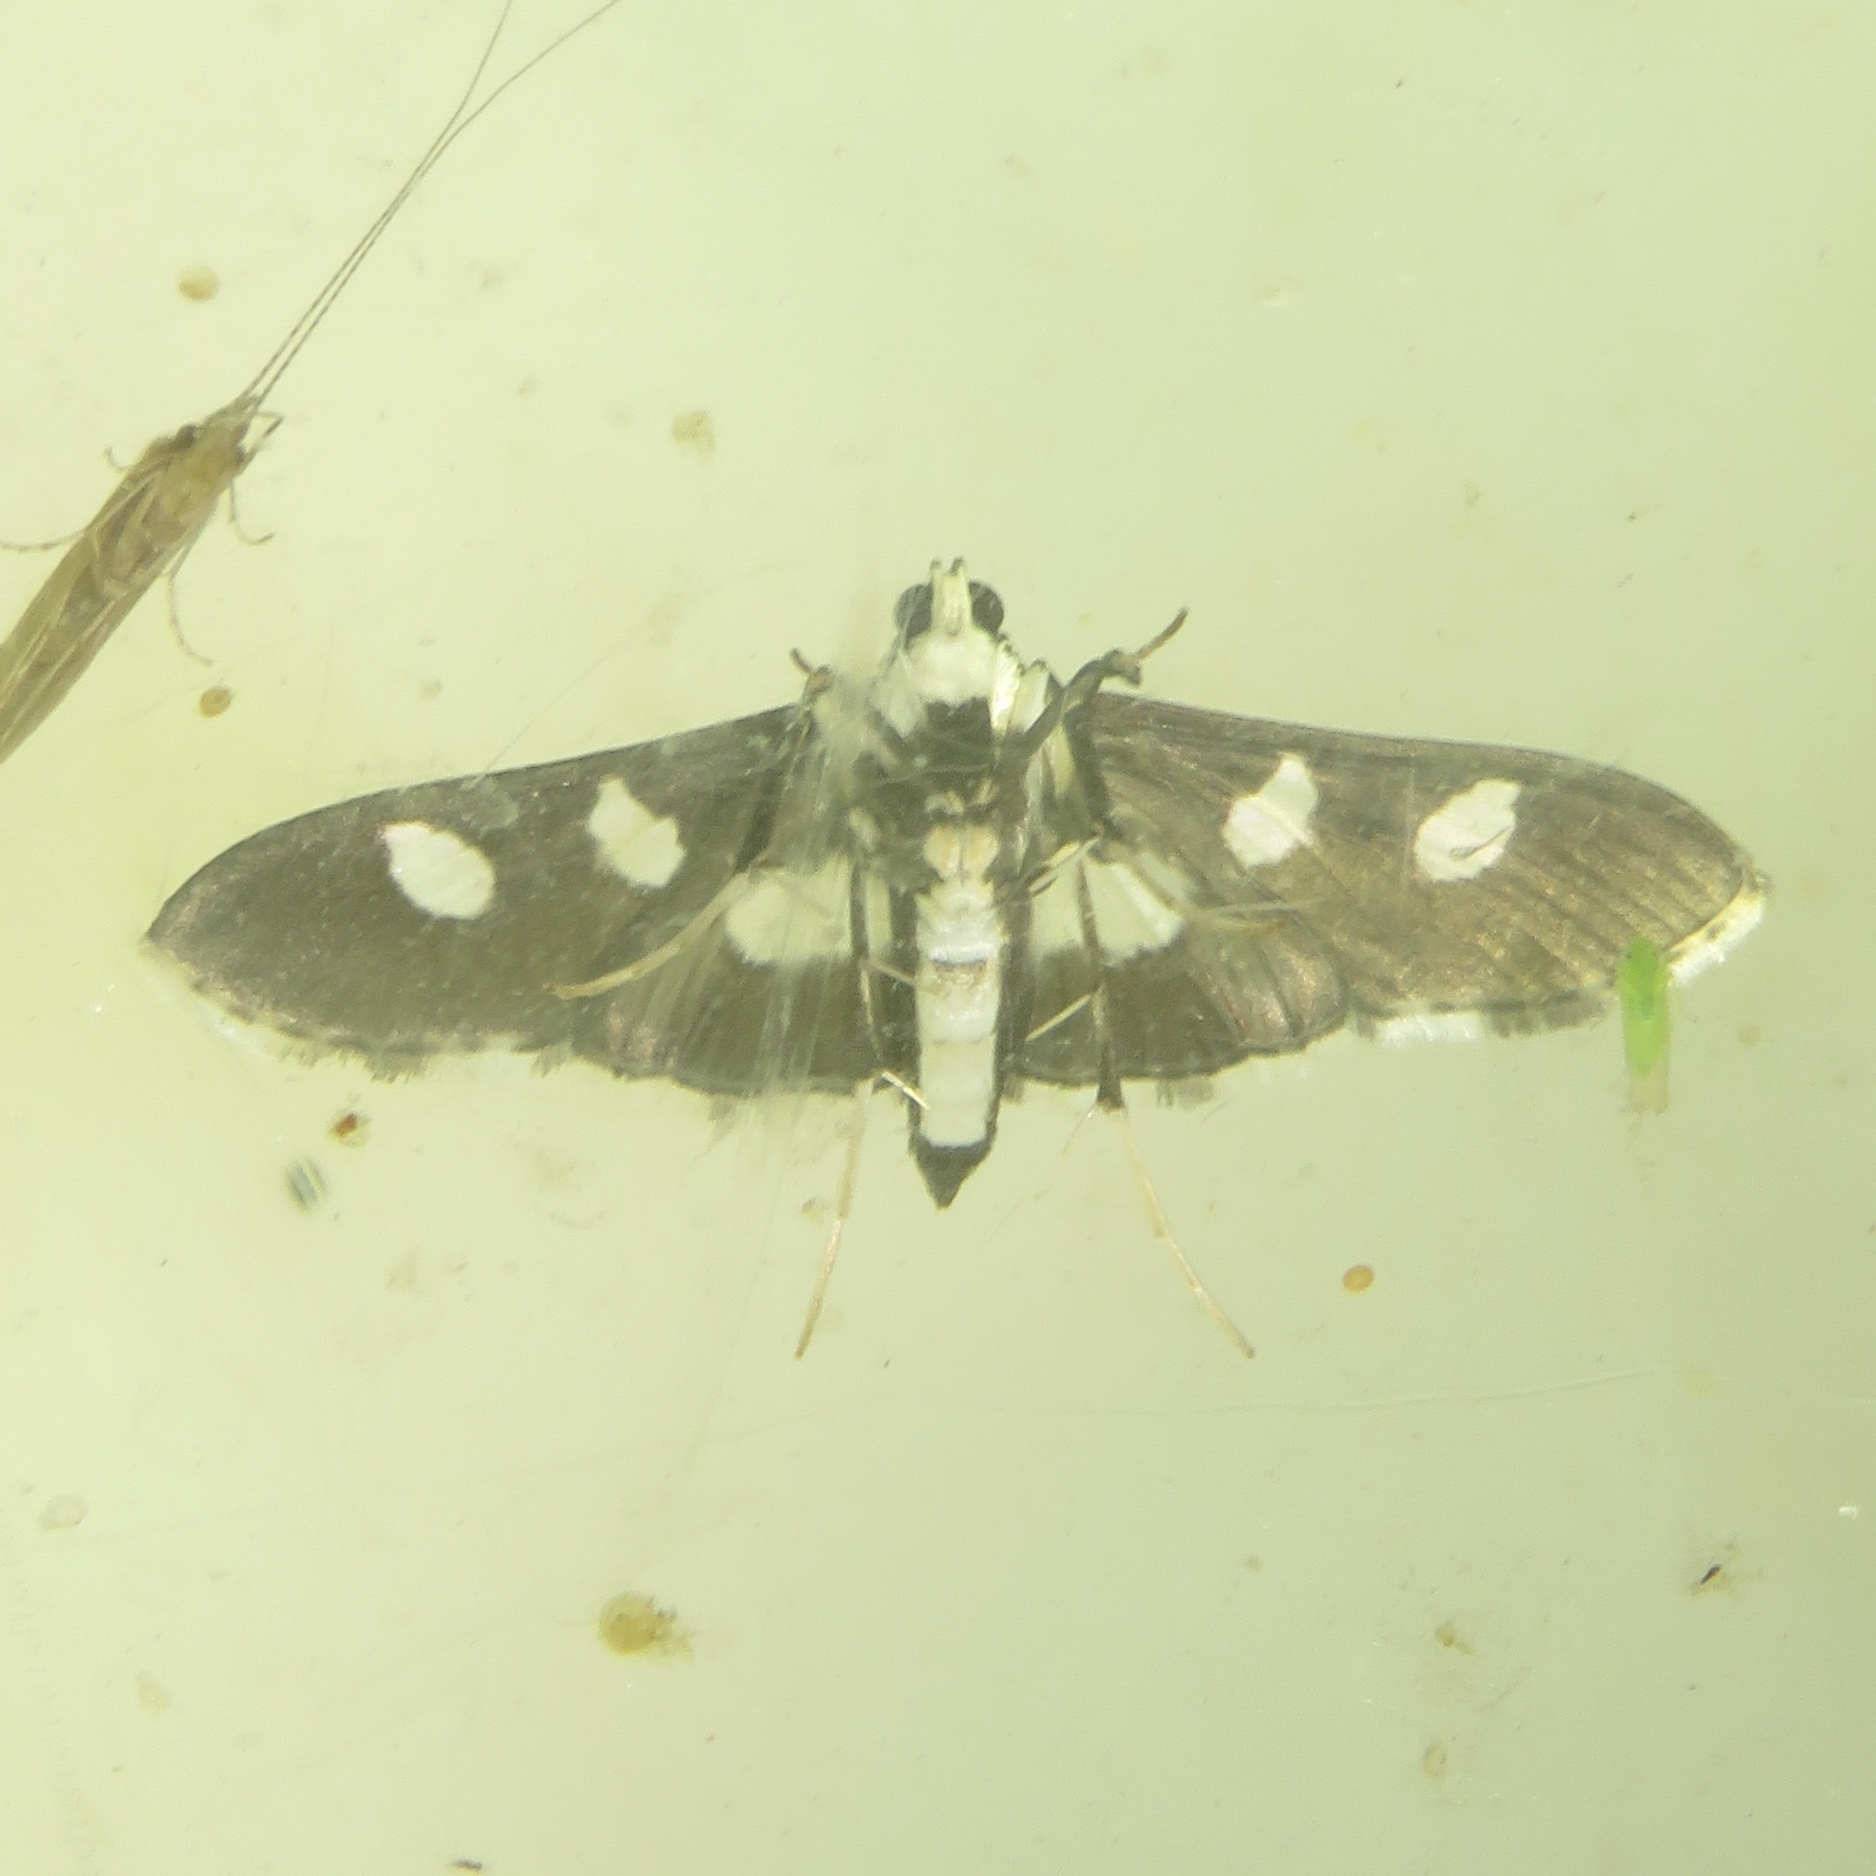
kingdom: Animalia
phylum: Arthropoda
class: Insecta
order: Lepidoptera
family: Crambidae
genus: Desmia
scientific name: Desmia funeralis
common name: Grape leaf folder moth
